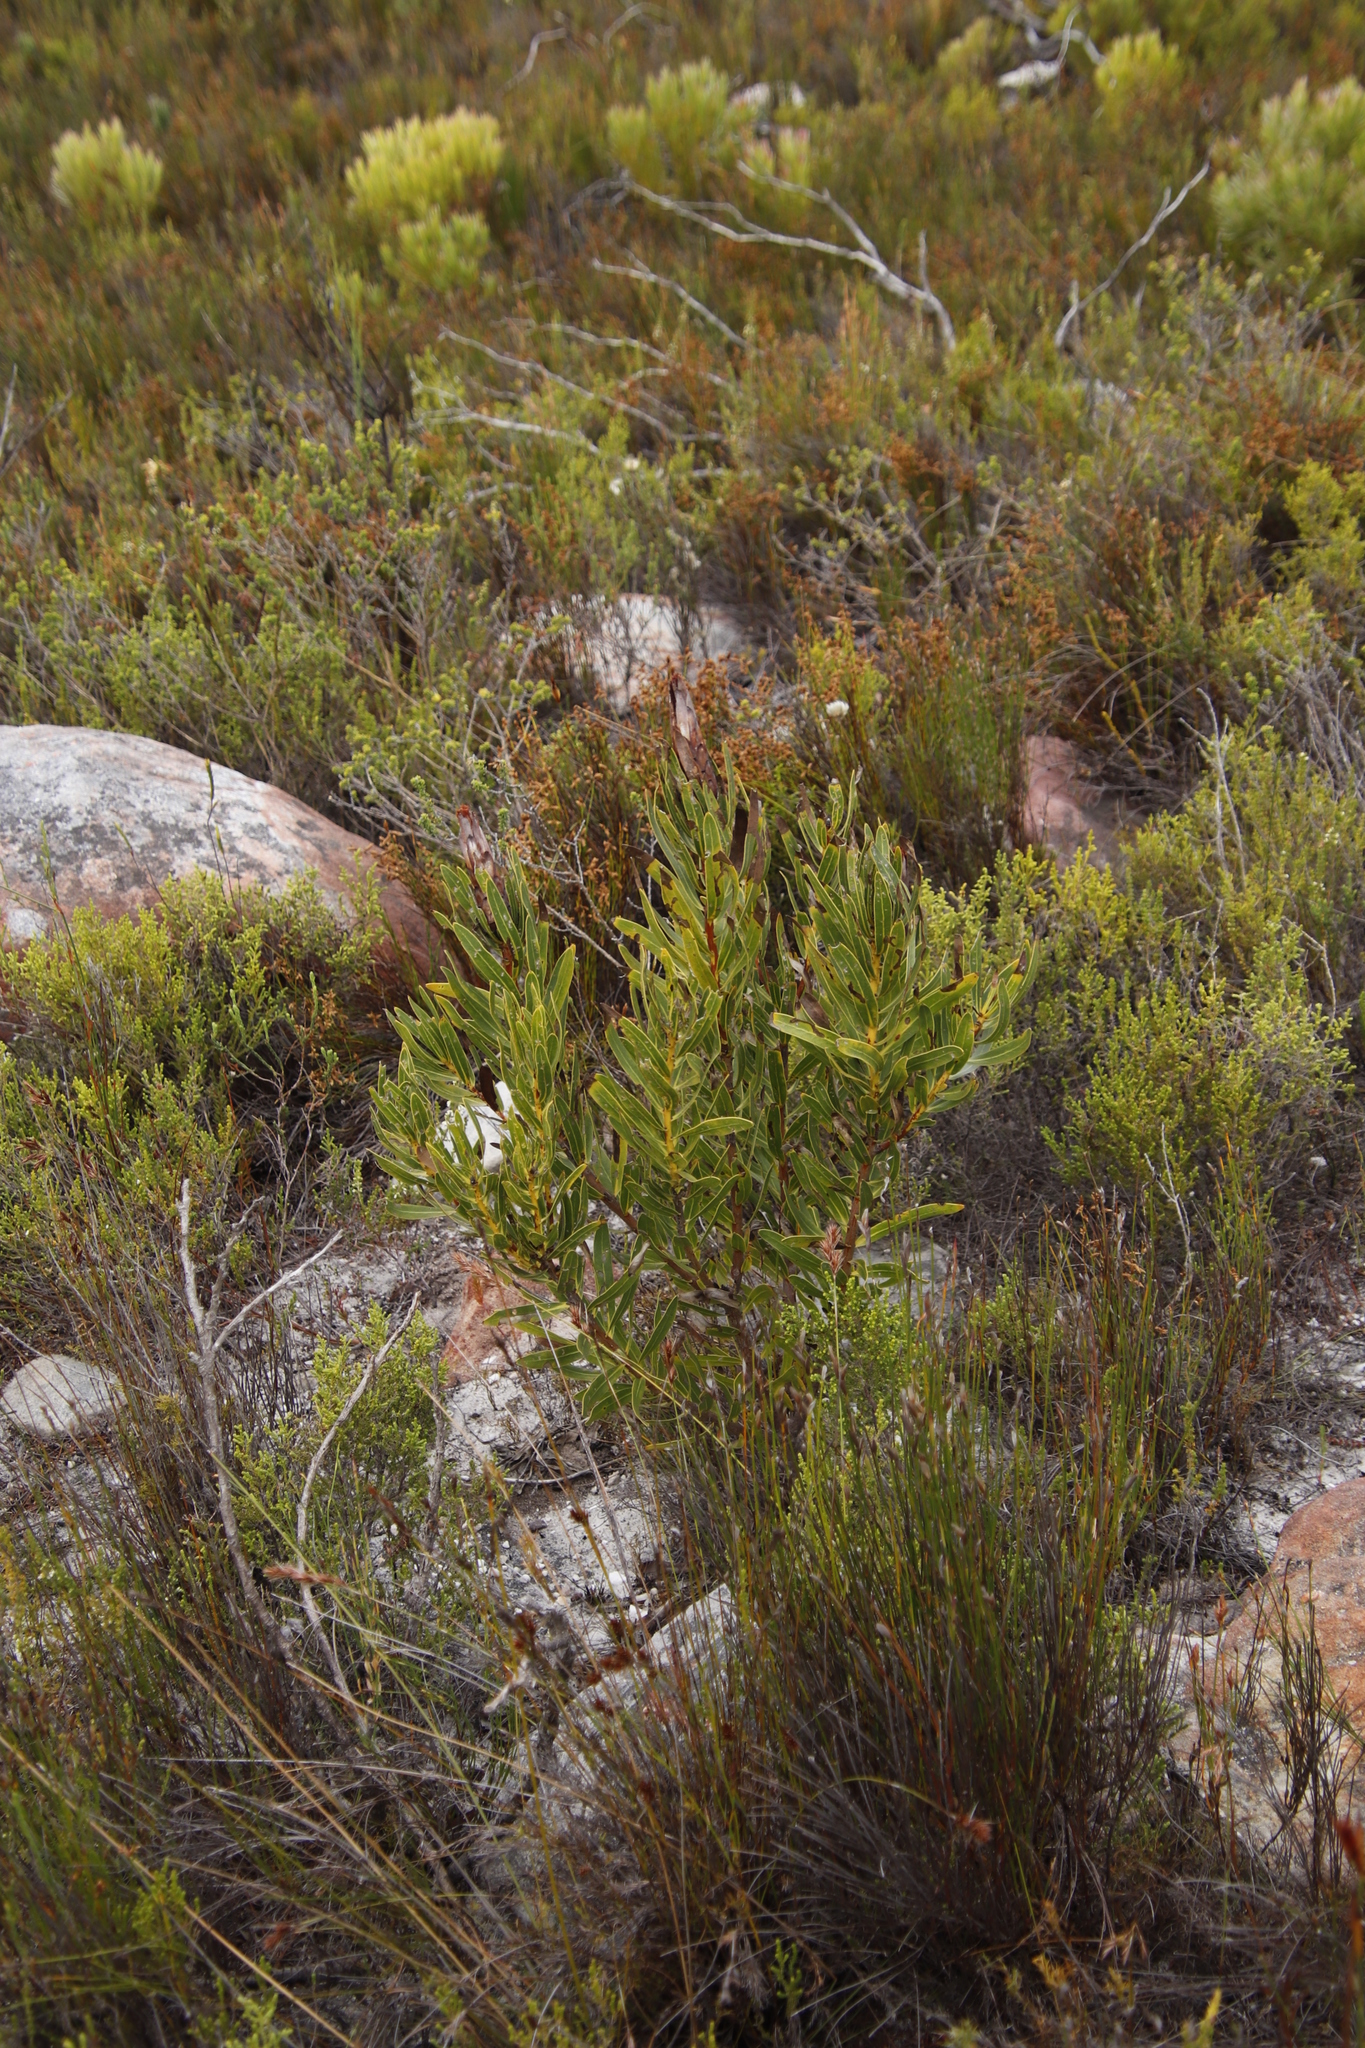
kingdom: Plantae
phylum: Tracheophyta
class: Magnoliopsida
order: Proteales
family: Proteaceae
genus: Protea
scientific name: Protea lepidocarpodendron
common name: Black-bearded protea
